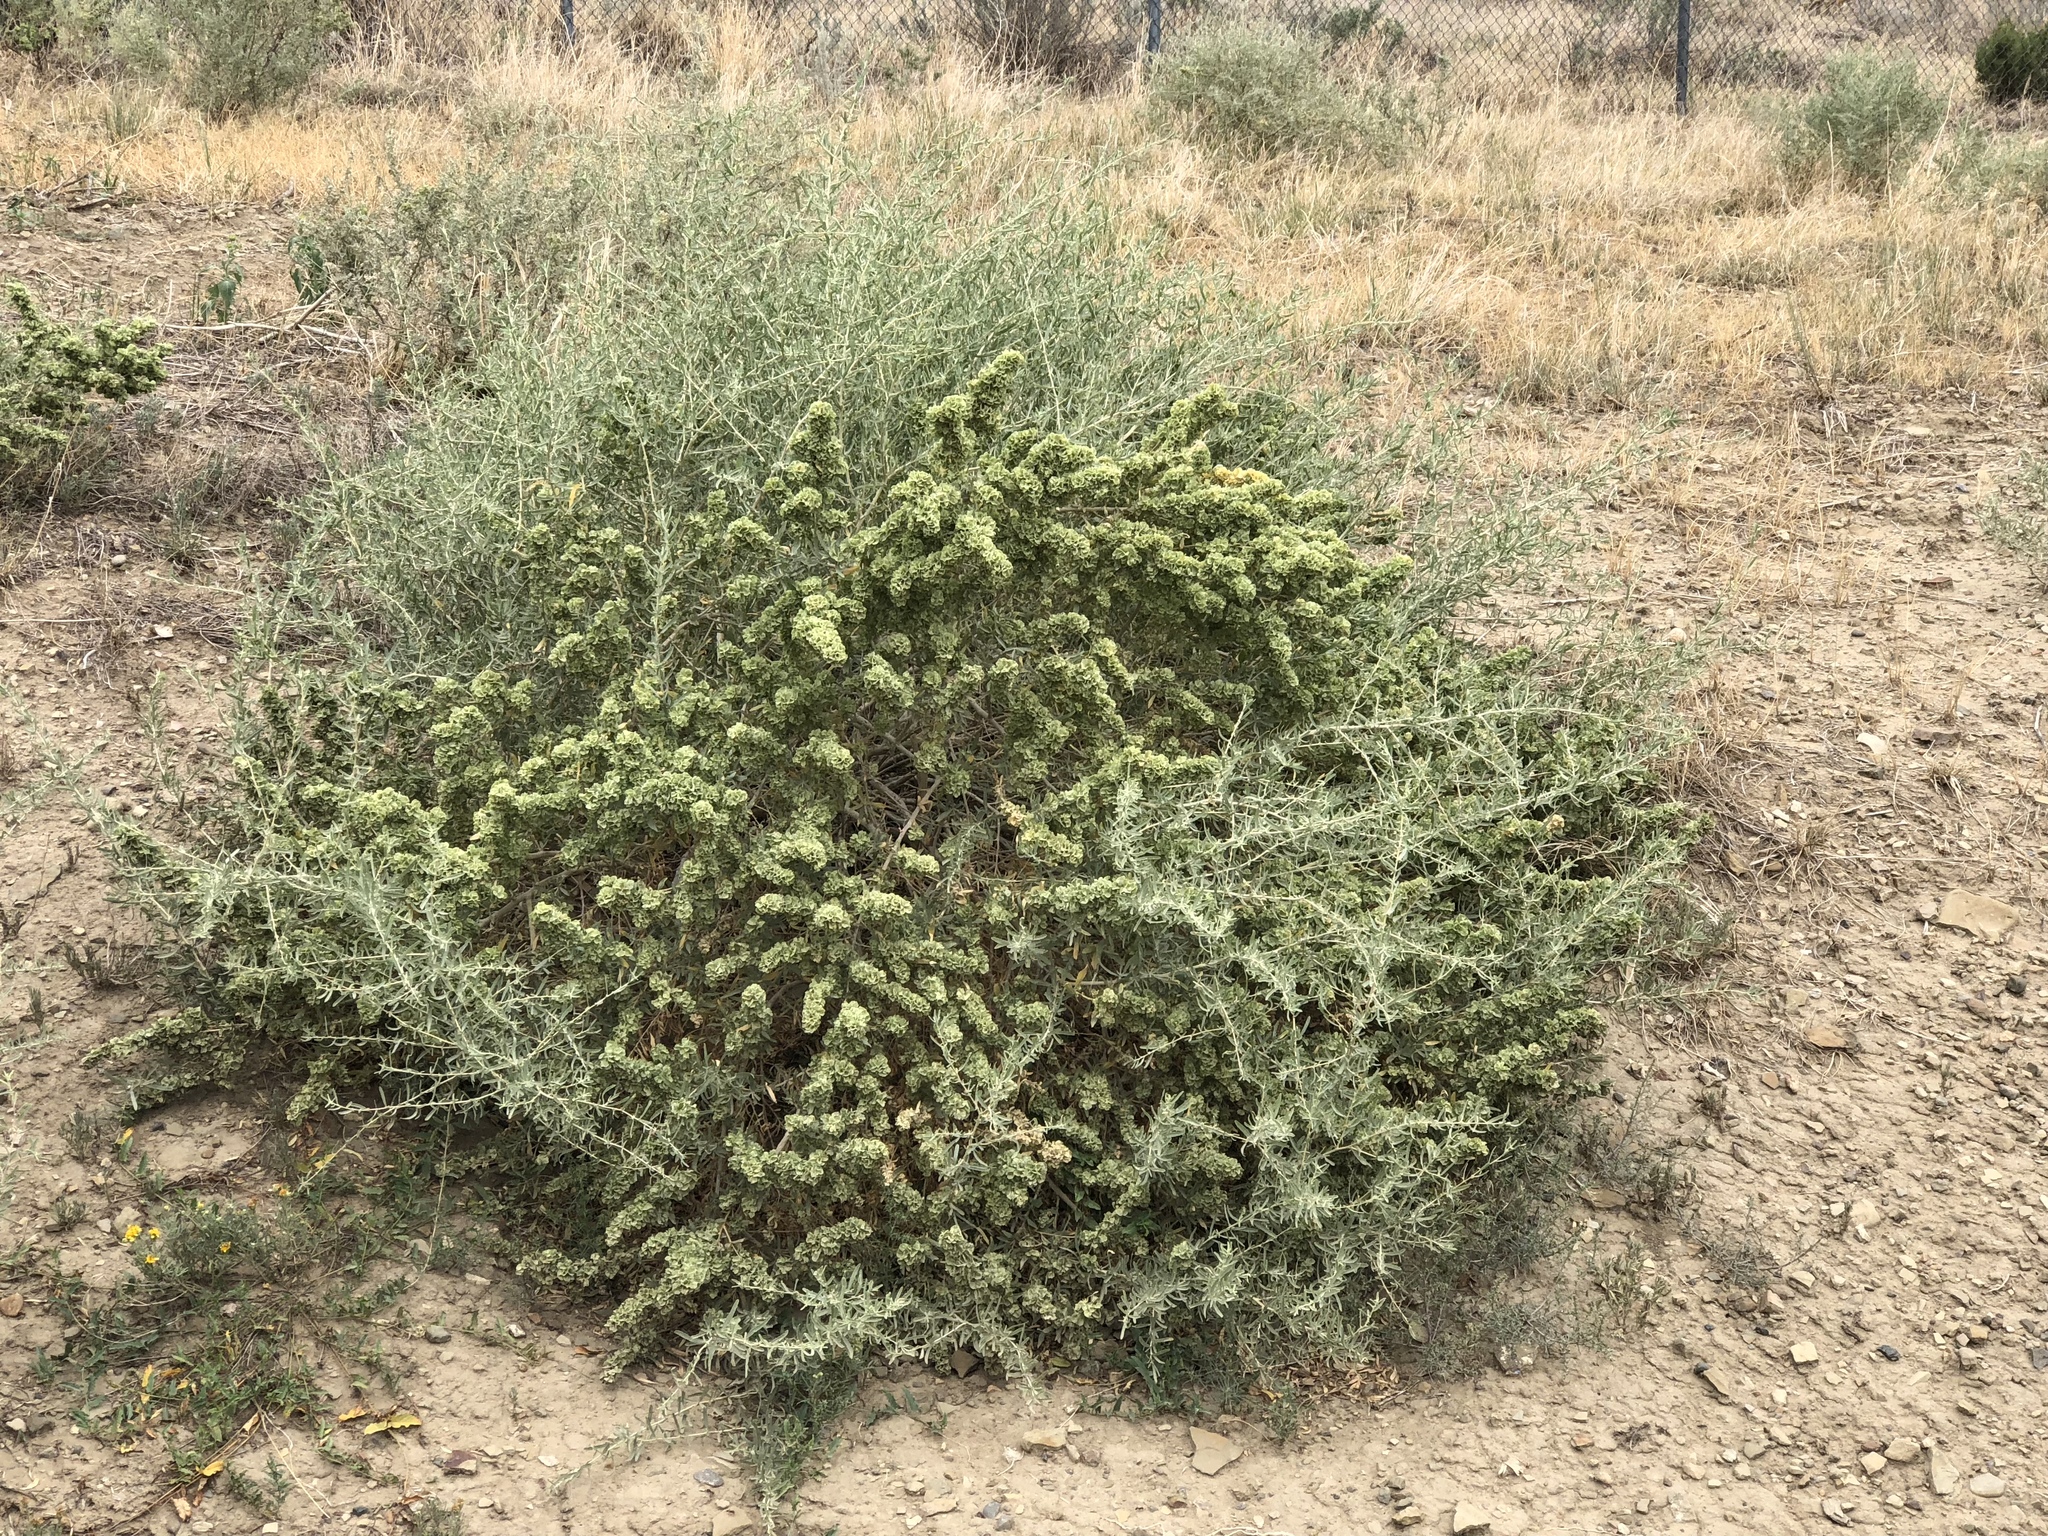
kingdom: Plantae
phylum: Tracheophyta
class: Magnoliopsida
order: Caryophyllales
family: Amaranthaceae
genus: Atriplex
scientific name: Atriplex canescens
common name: Four-wing saltbush
